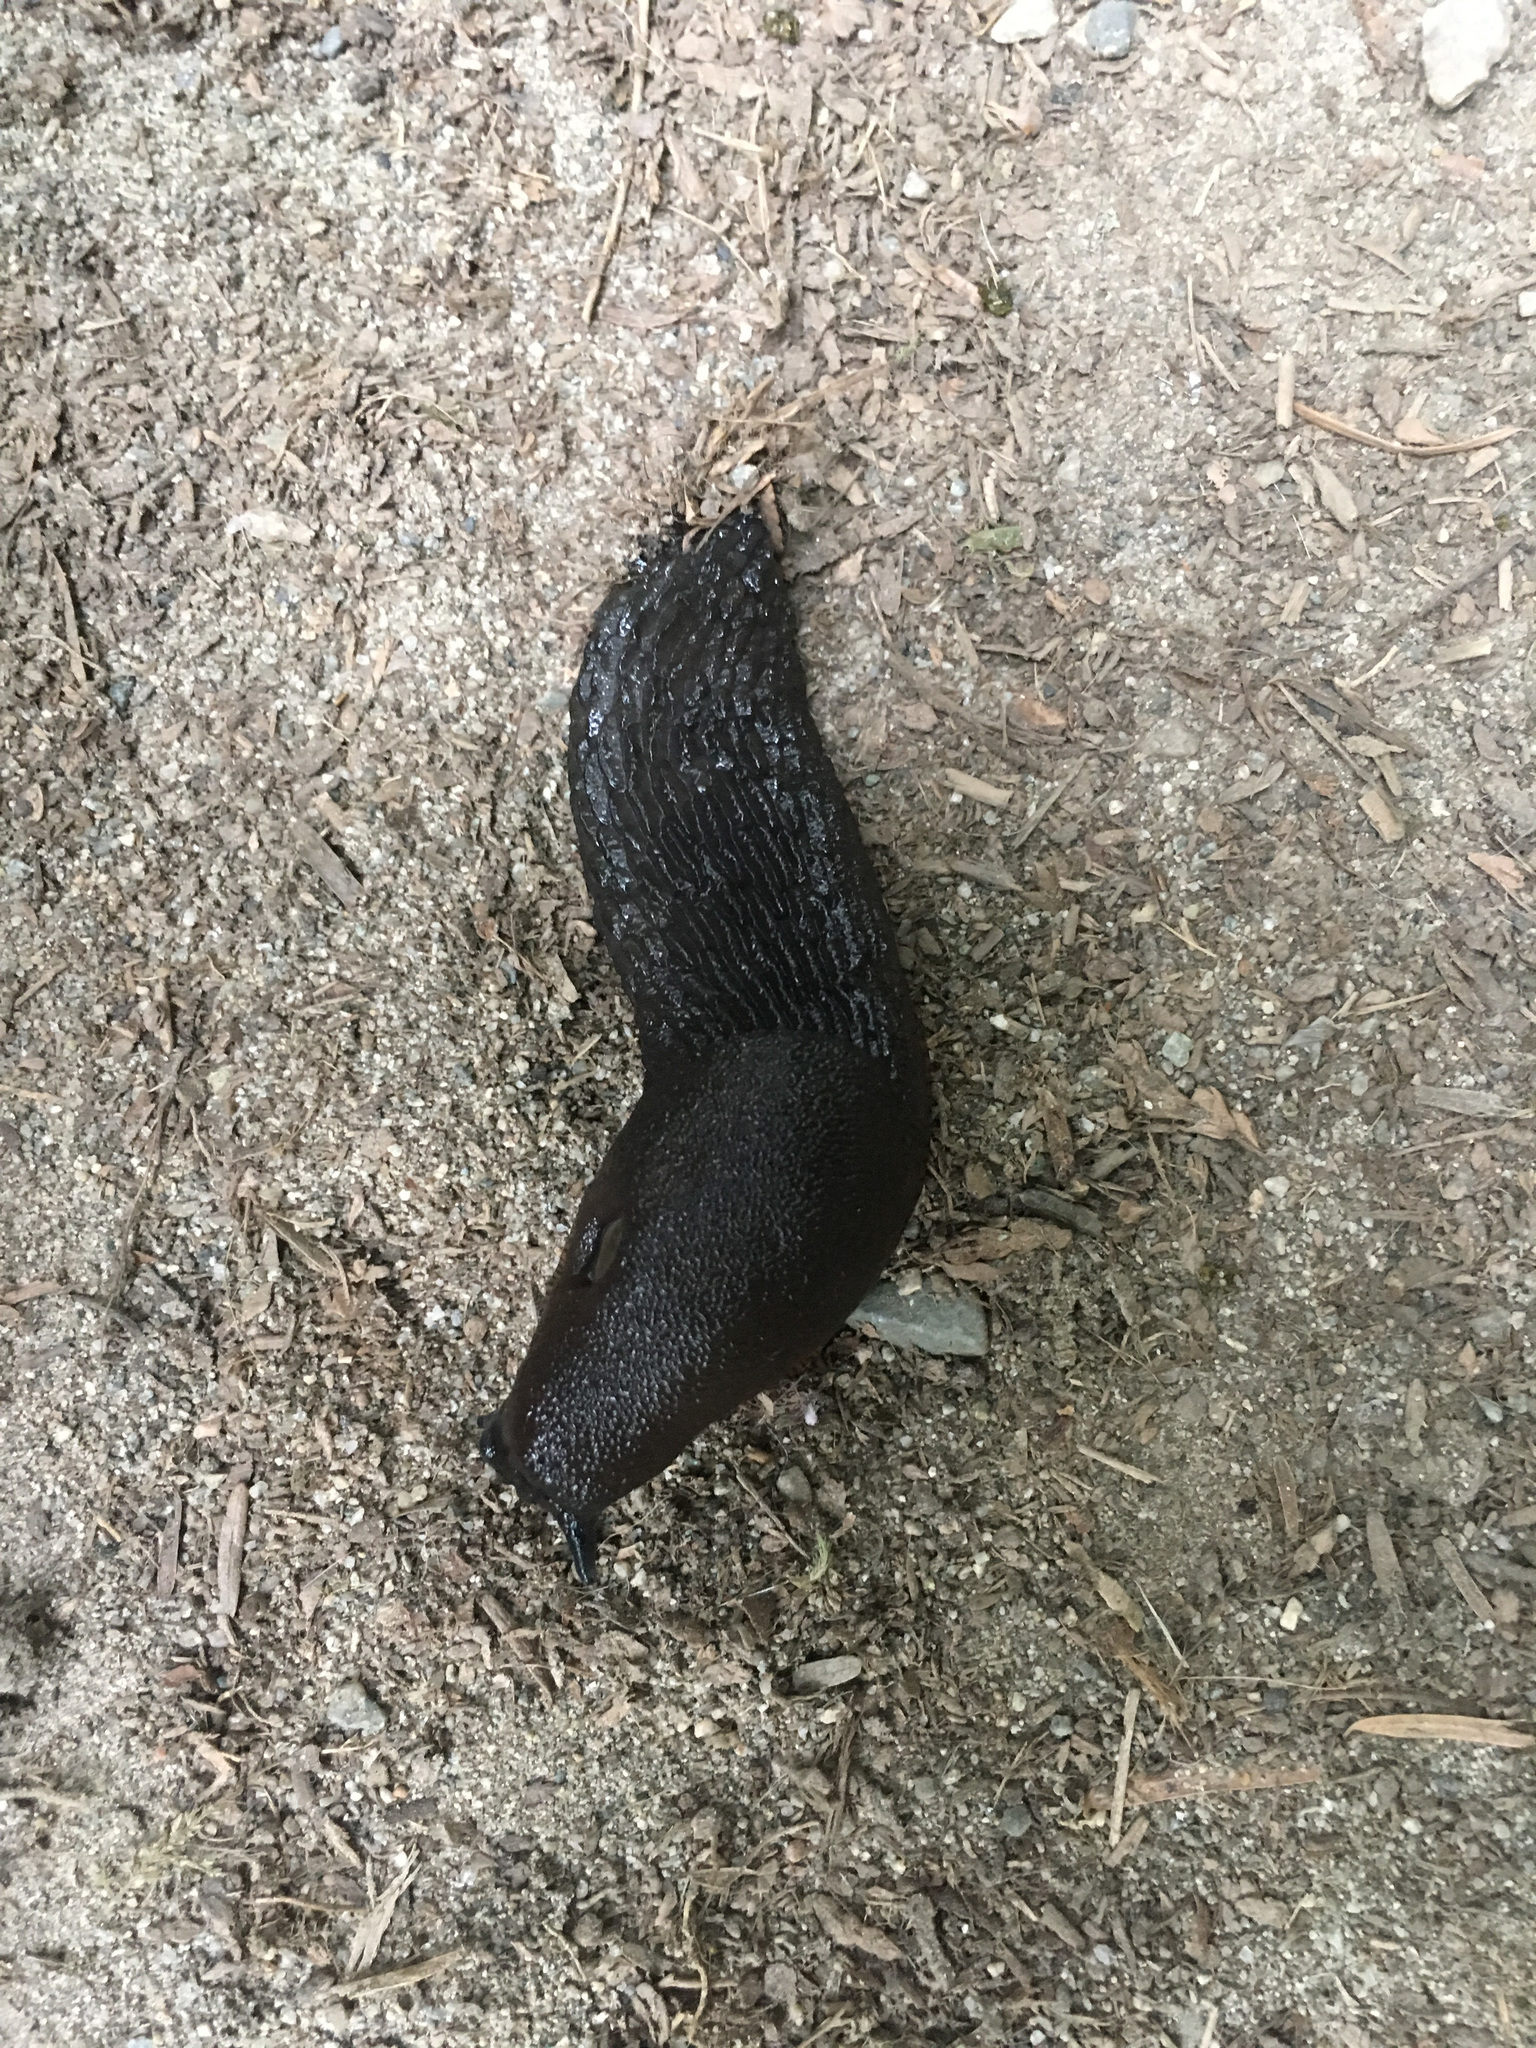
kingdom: Animalia
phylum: Mollusca
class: Gastropoda
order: Stylommatophora
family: Arionidae
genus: Arion
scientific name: Arion rufus
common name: Chocolate arion
